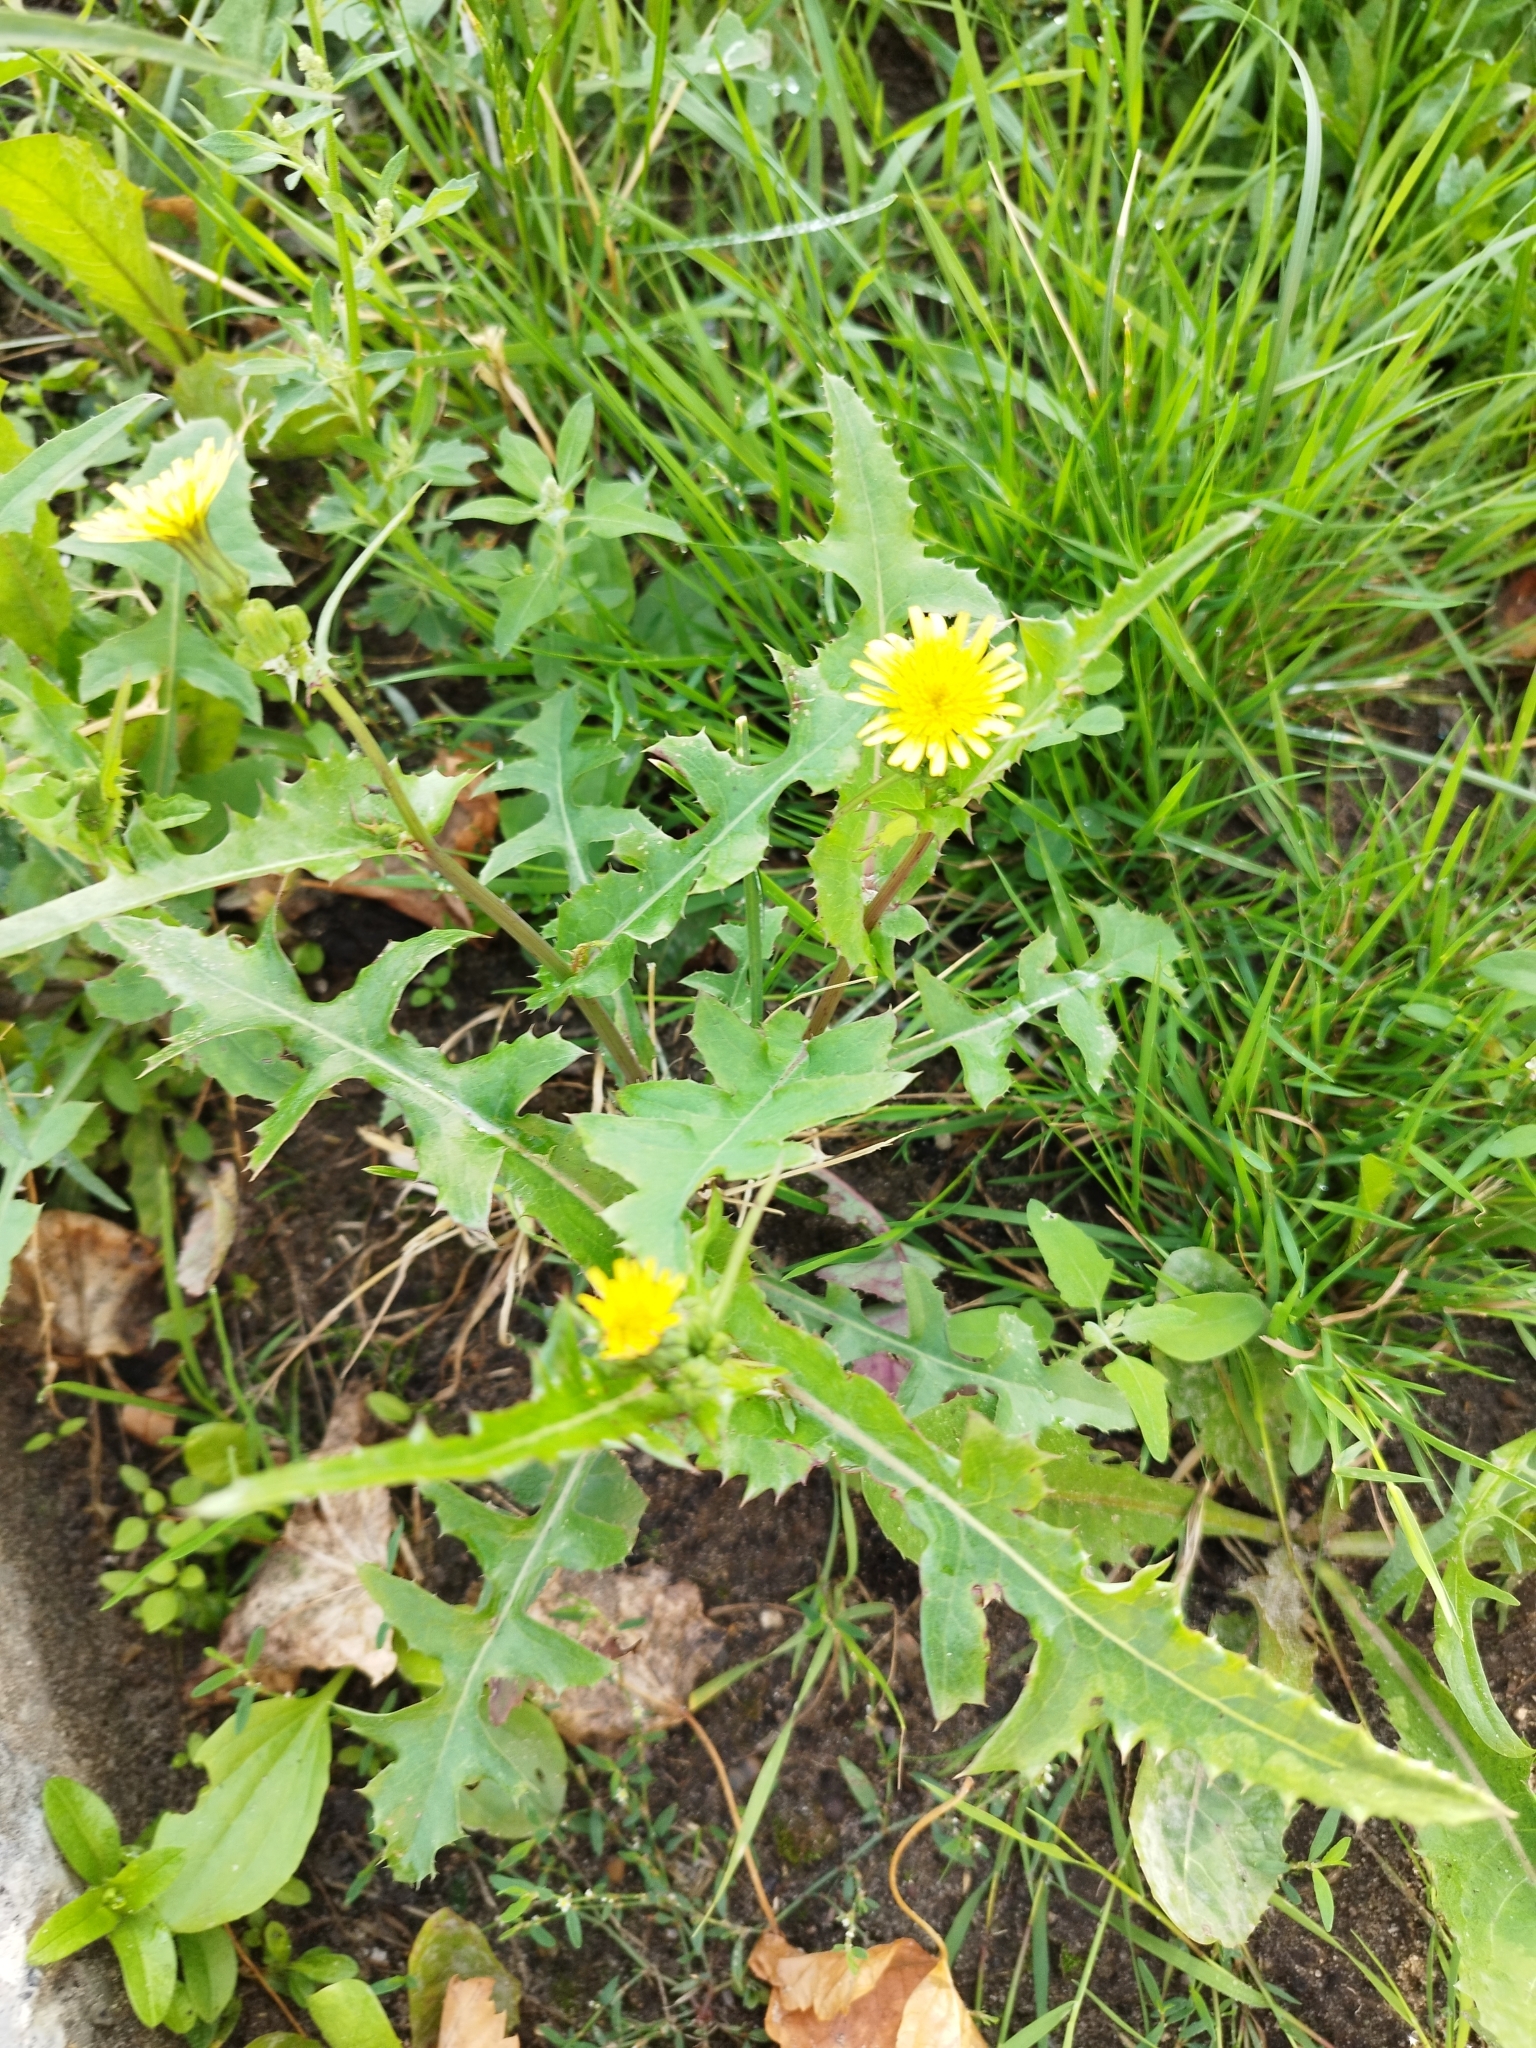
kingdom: Plantae
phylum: Tracheophyta
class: Magnoliopsida
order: Asterales
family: Asteraceae
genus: Sonchus
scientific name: Sonchus oleraceus
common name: Common sowthistle
